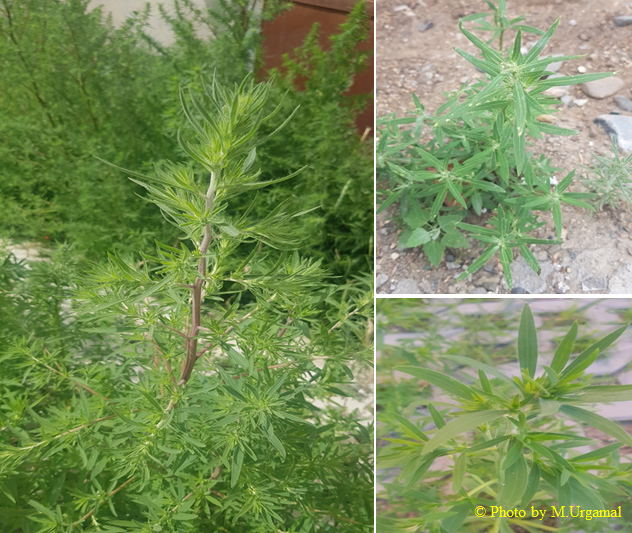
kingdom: Plantae
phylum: Tracheophyta
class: Magnoliopsida
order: Caryophyllales
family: Amaranthaceae
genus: Bassia
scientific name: Bassia scoparia
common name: Belvedere
